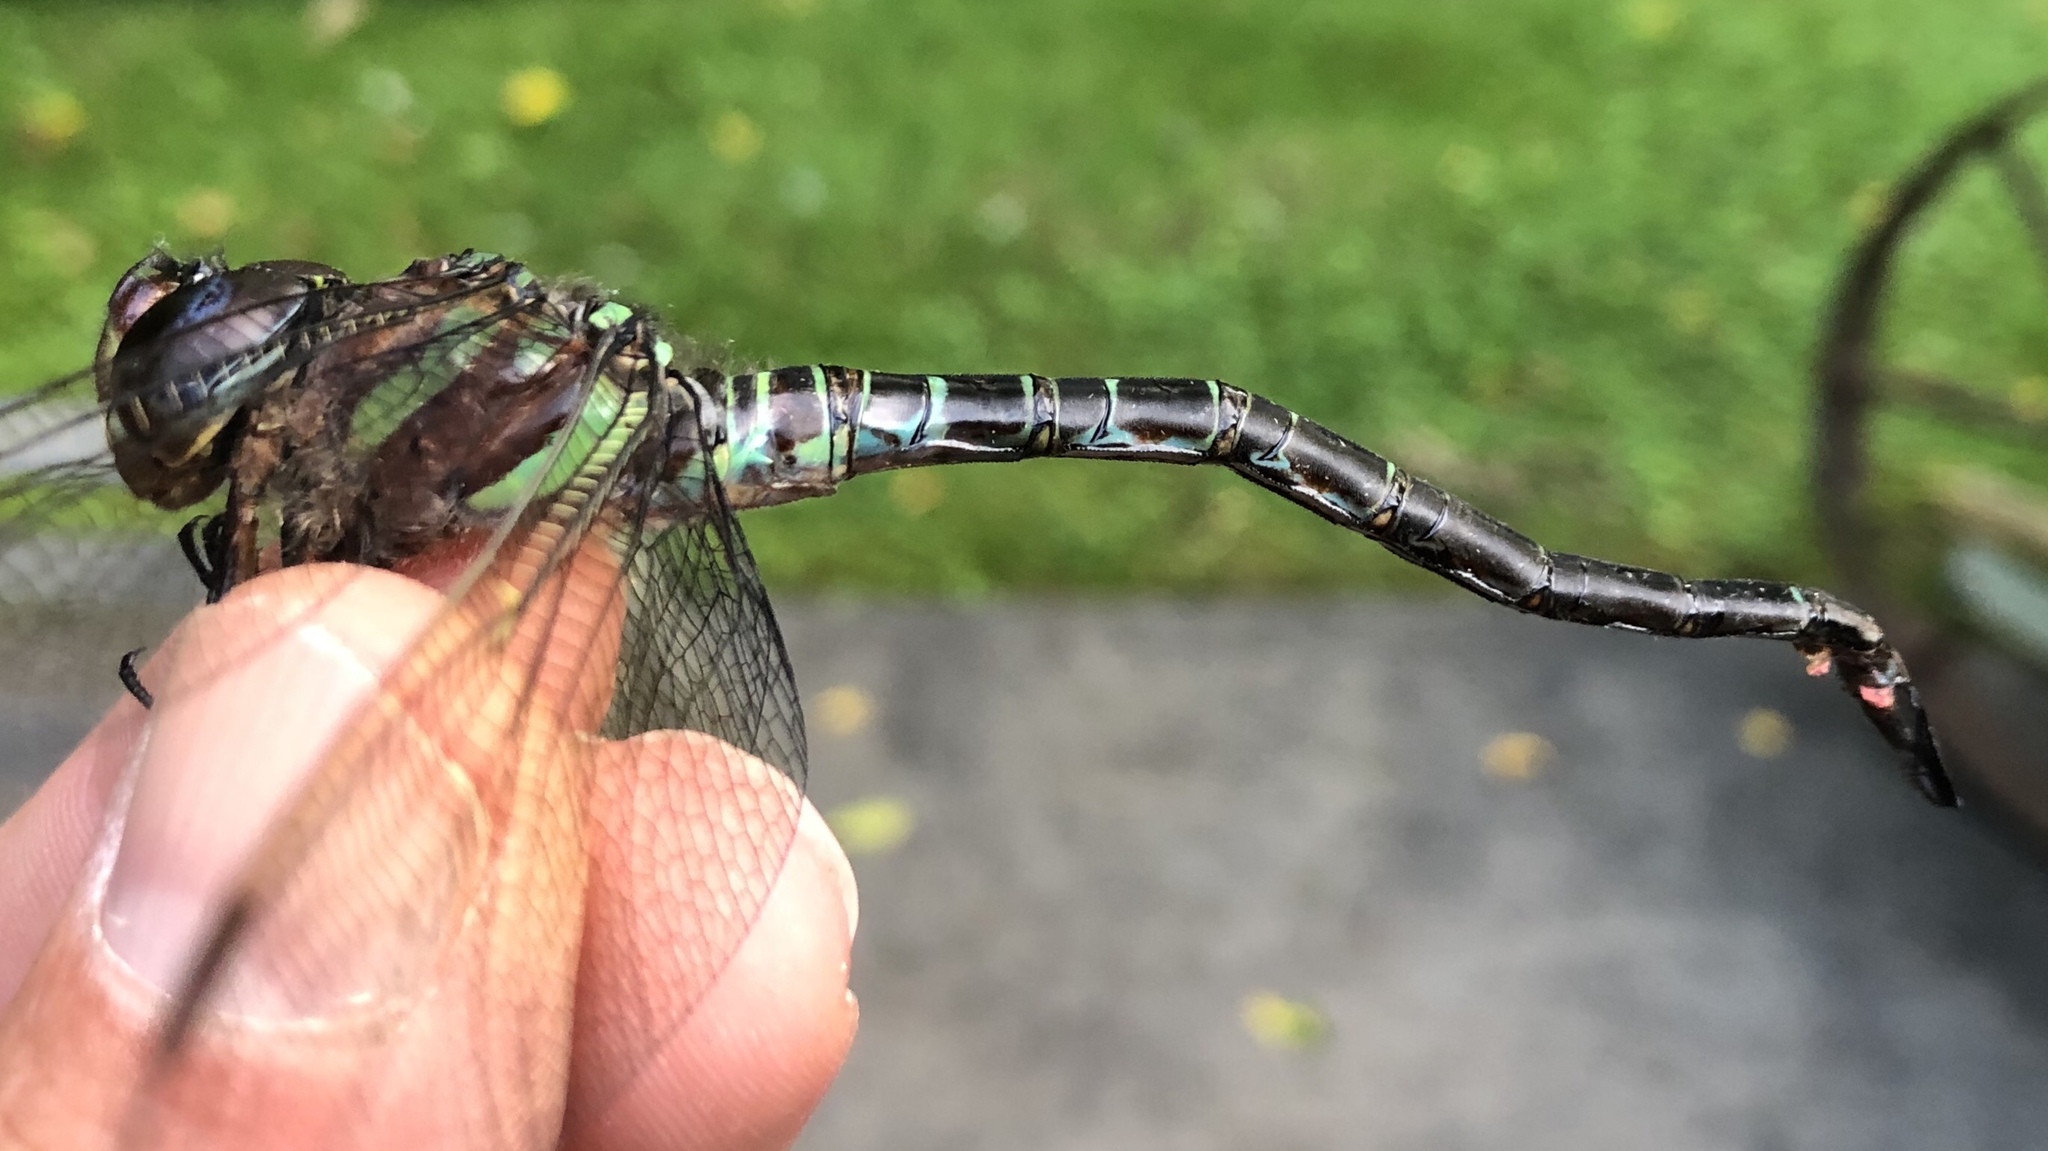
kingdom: Animalia
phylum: Arthropoda
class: Insecta
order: Odonata
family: Aeshnidae
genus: Epiaeschna
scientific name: Epiaeschna heros
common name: Swamp darner
